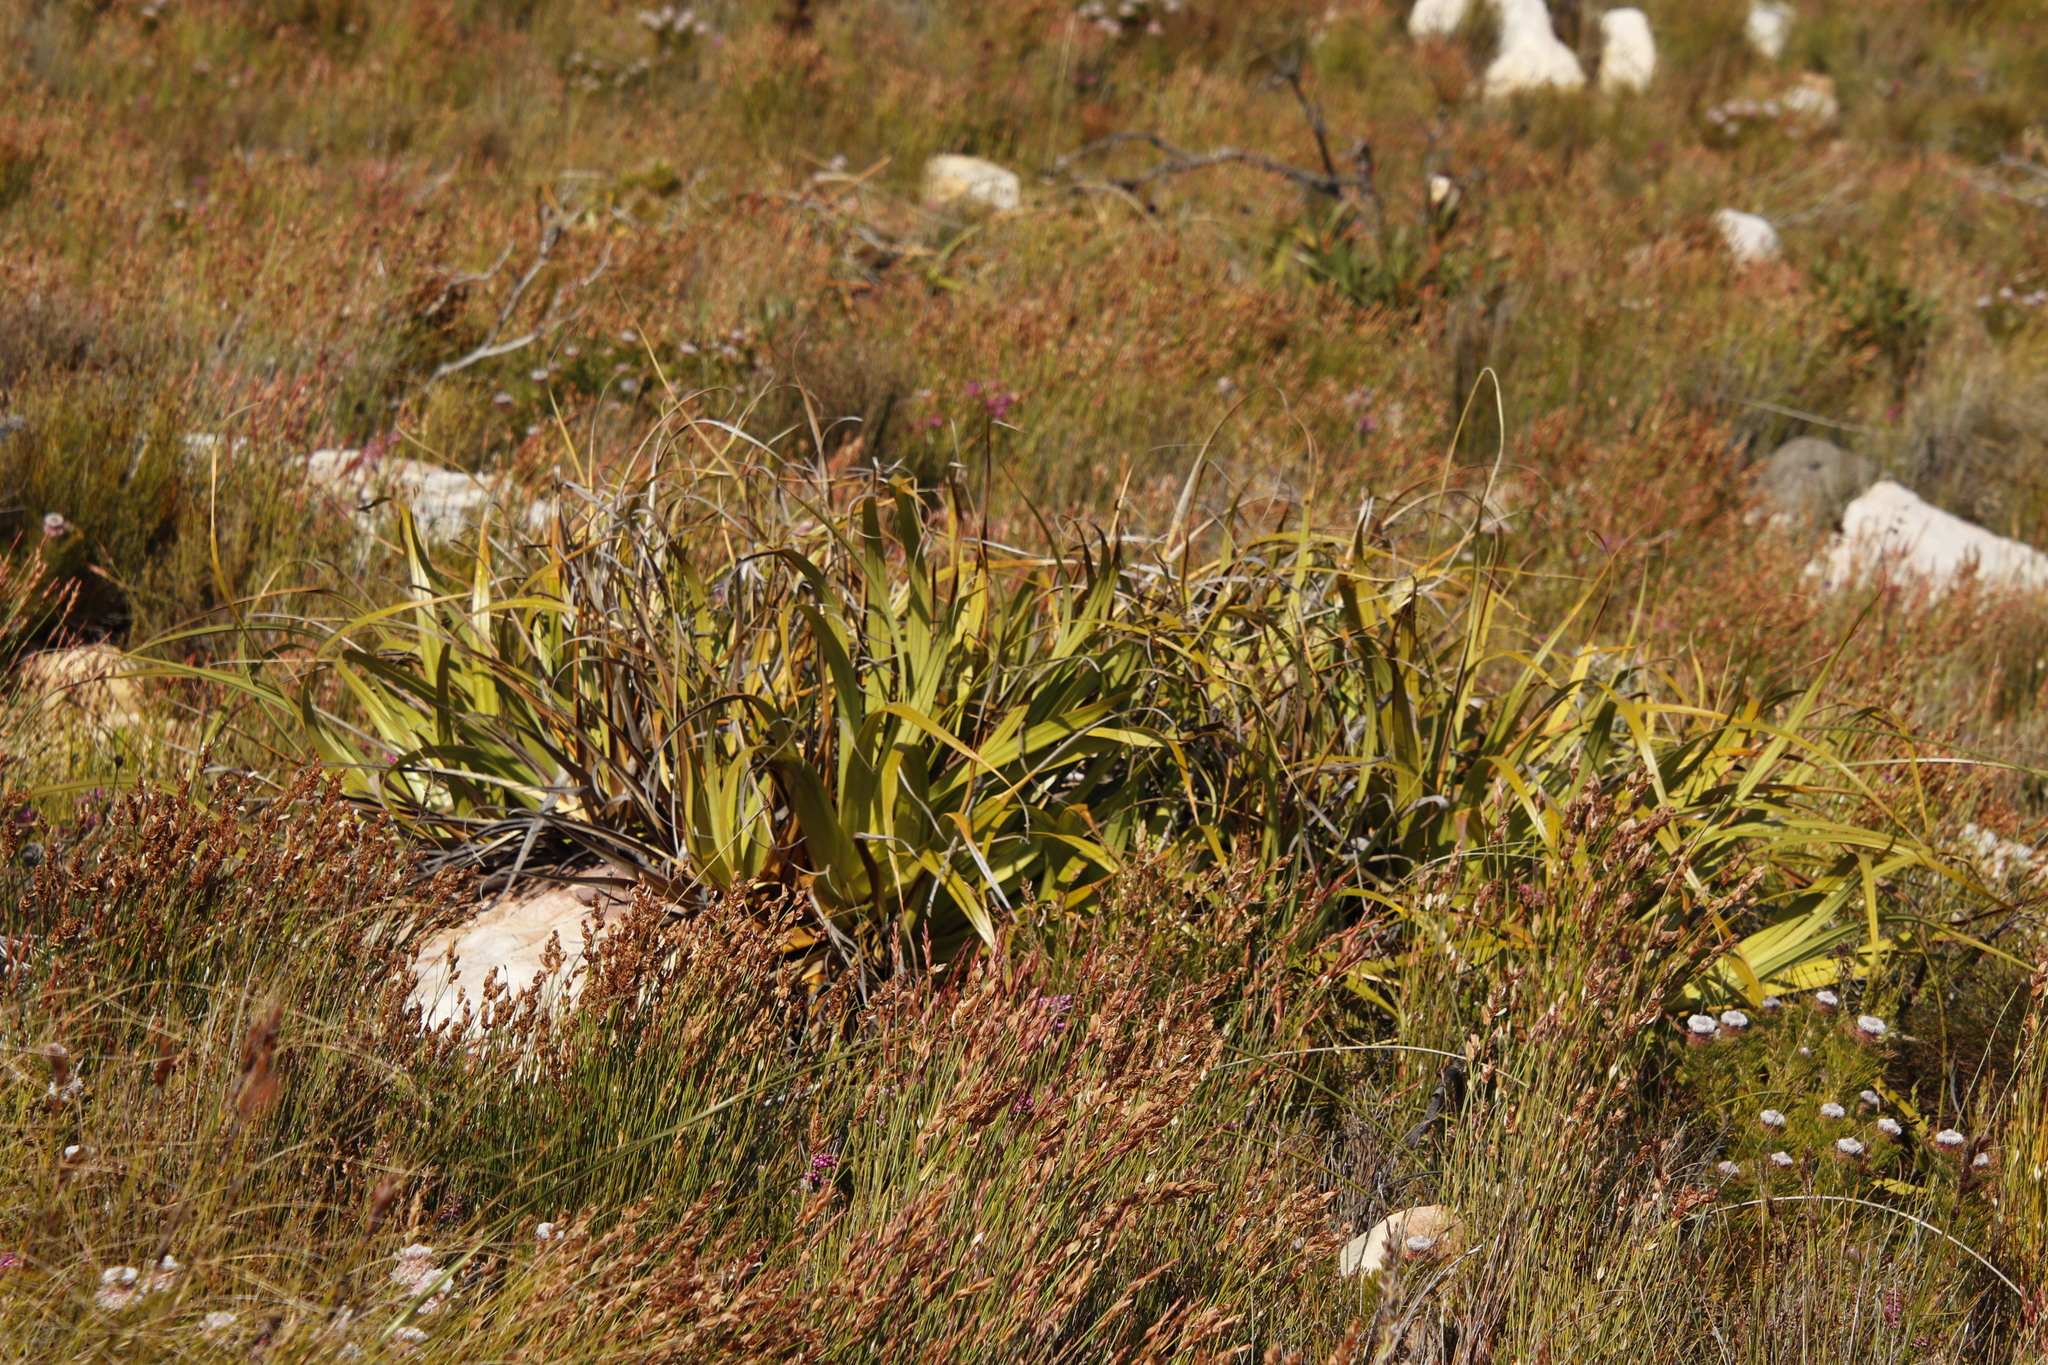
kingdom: Plantae
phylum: Tracheophyta
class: Liliopsida
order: Poales
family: Cyperaceae
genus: Tetraria
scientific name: Tetraria thermalis
